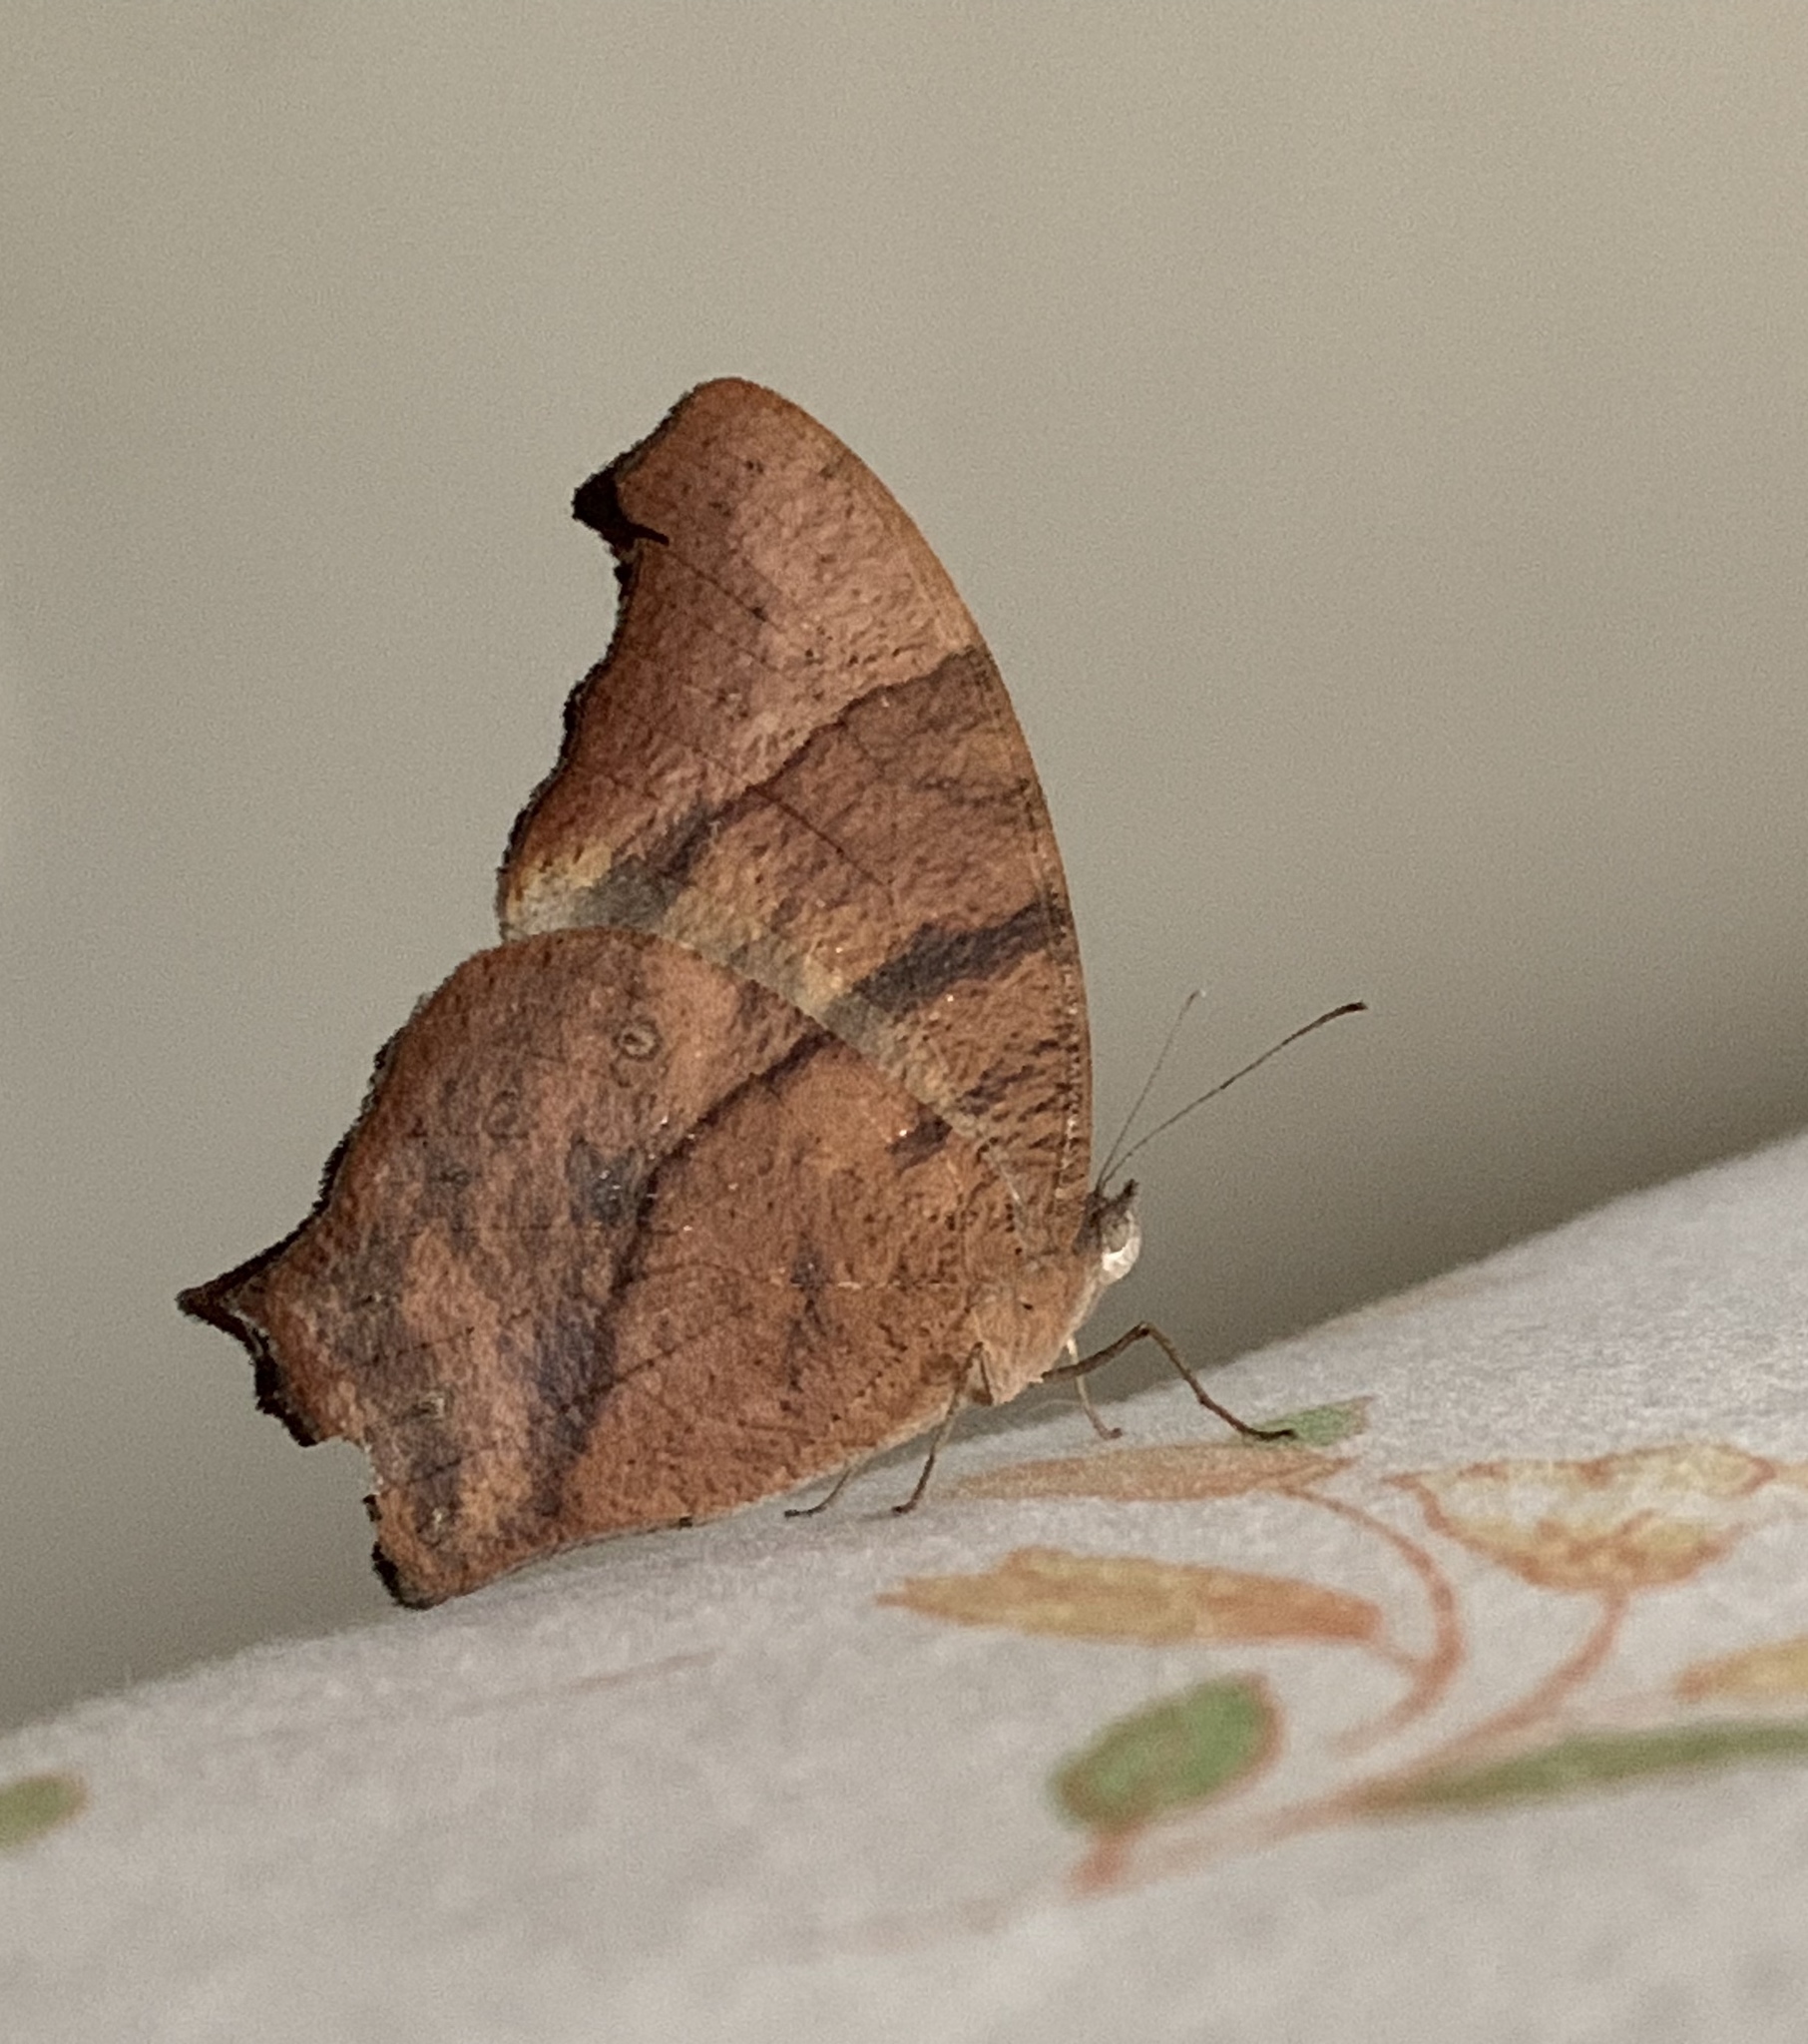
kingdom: Animalia
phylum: Arthropoda
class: Insecta
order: Lepidoptera
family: Nymphalidae
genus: Melanitis
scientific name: Melanitis leda
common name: Twilight brown
